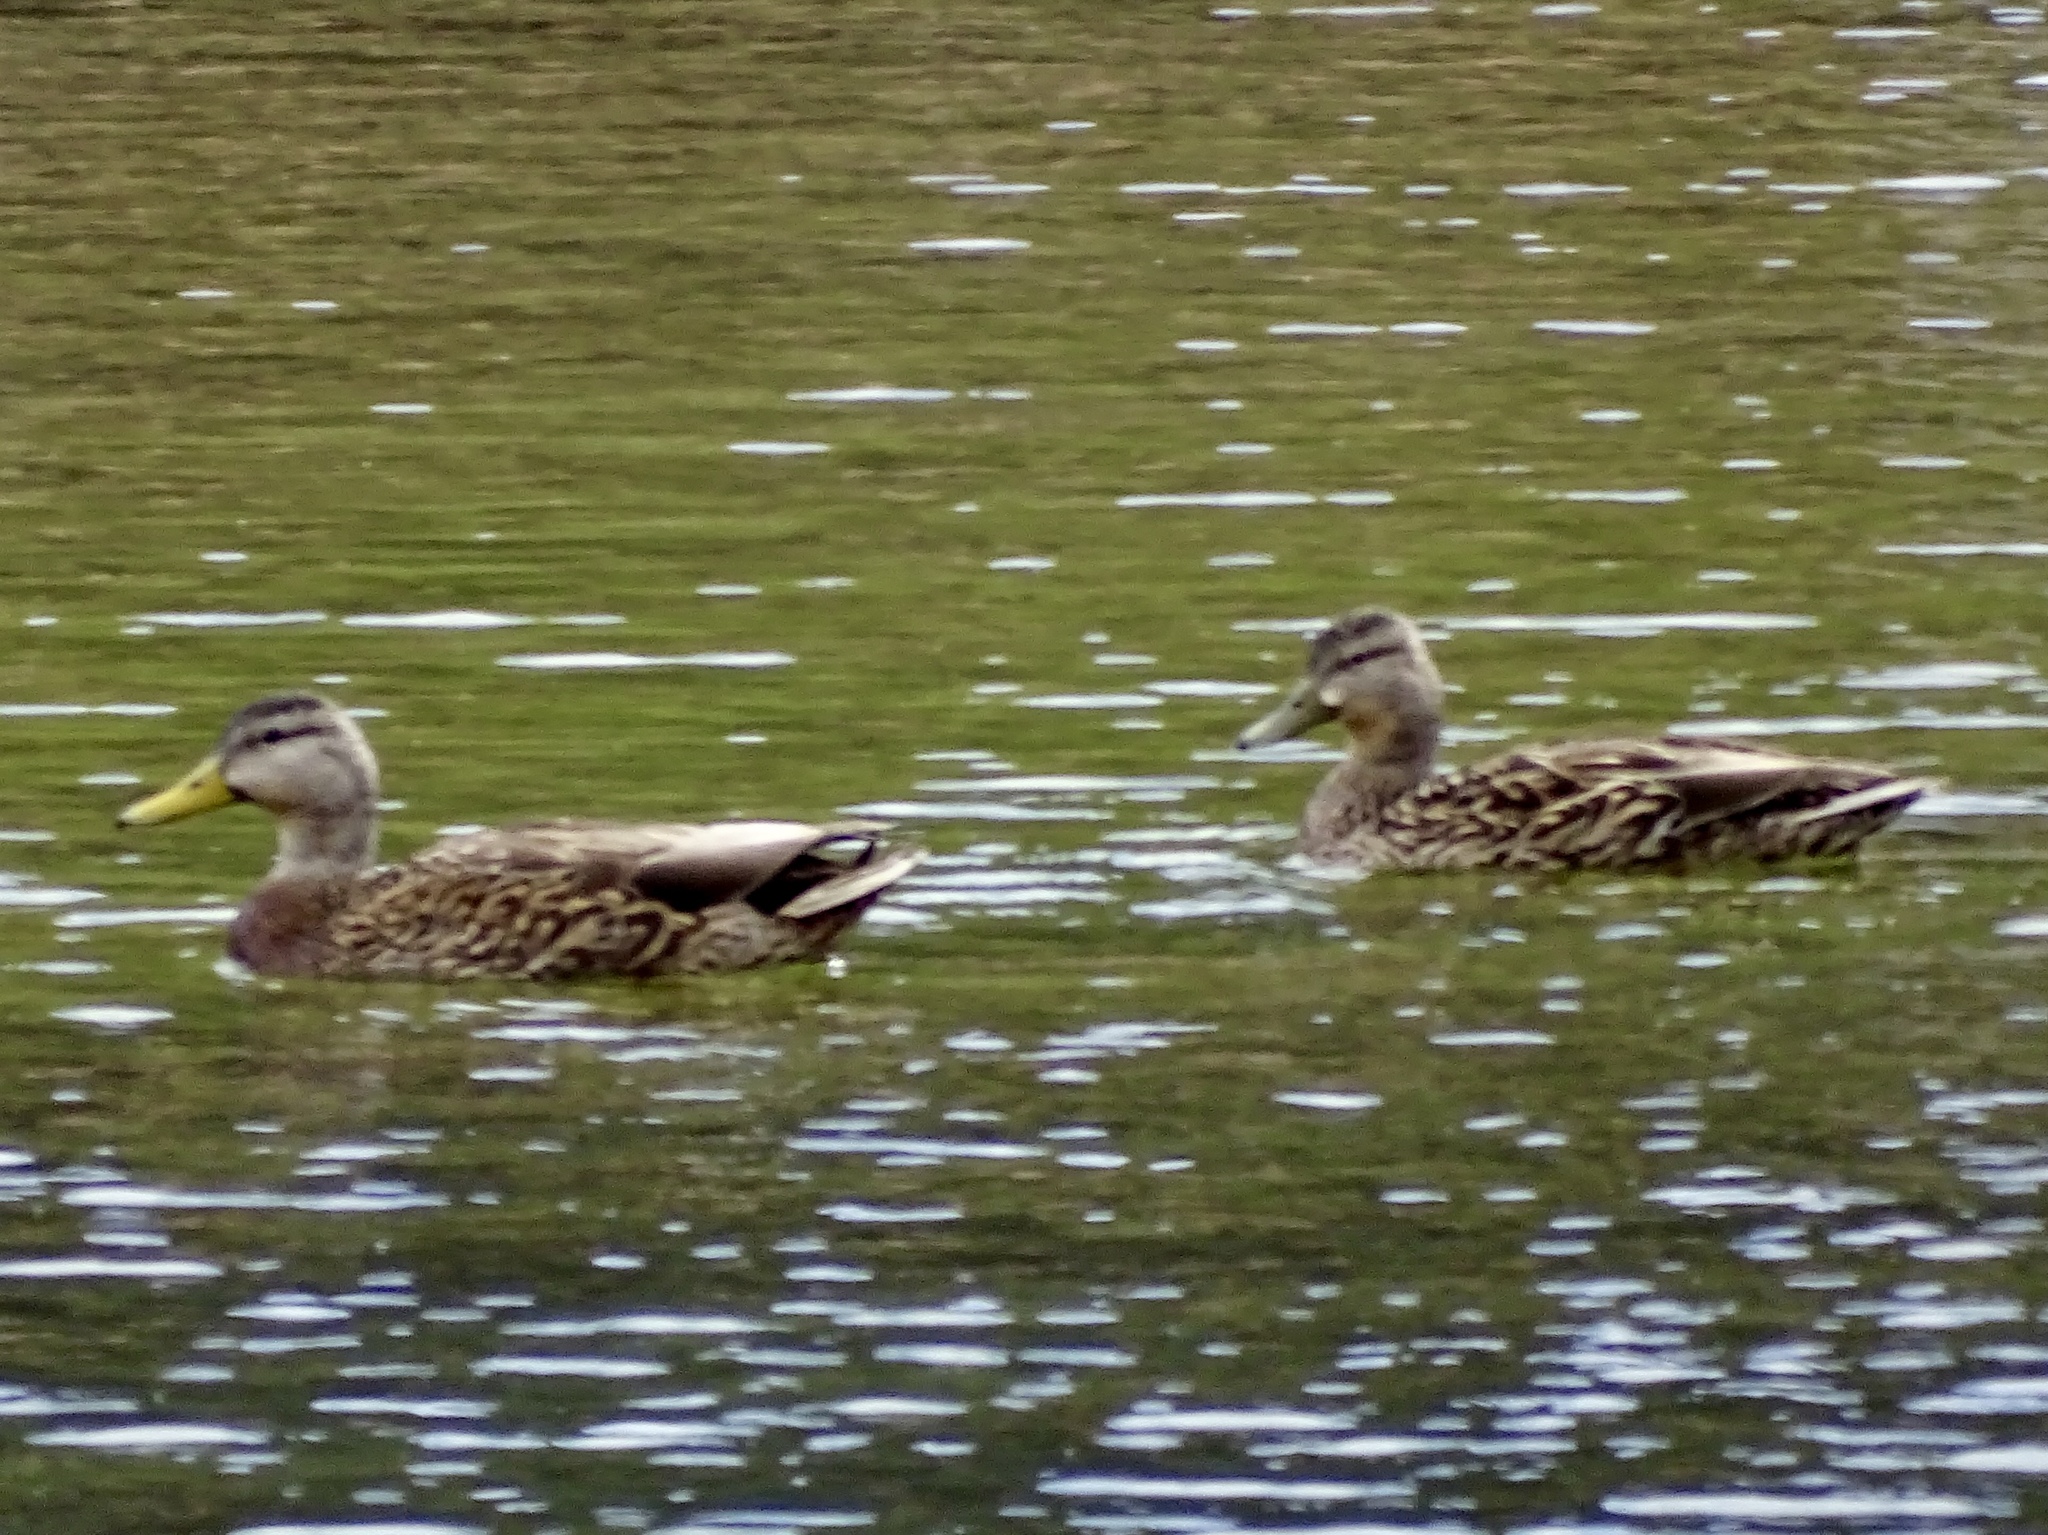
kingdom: Animalia
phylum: Chordata
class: Aves
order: Anseriformes
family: Anatidae
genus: Anas
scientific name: Anas
